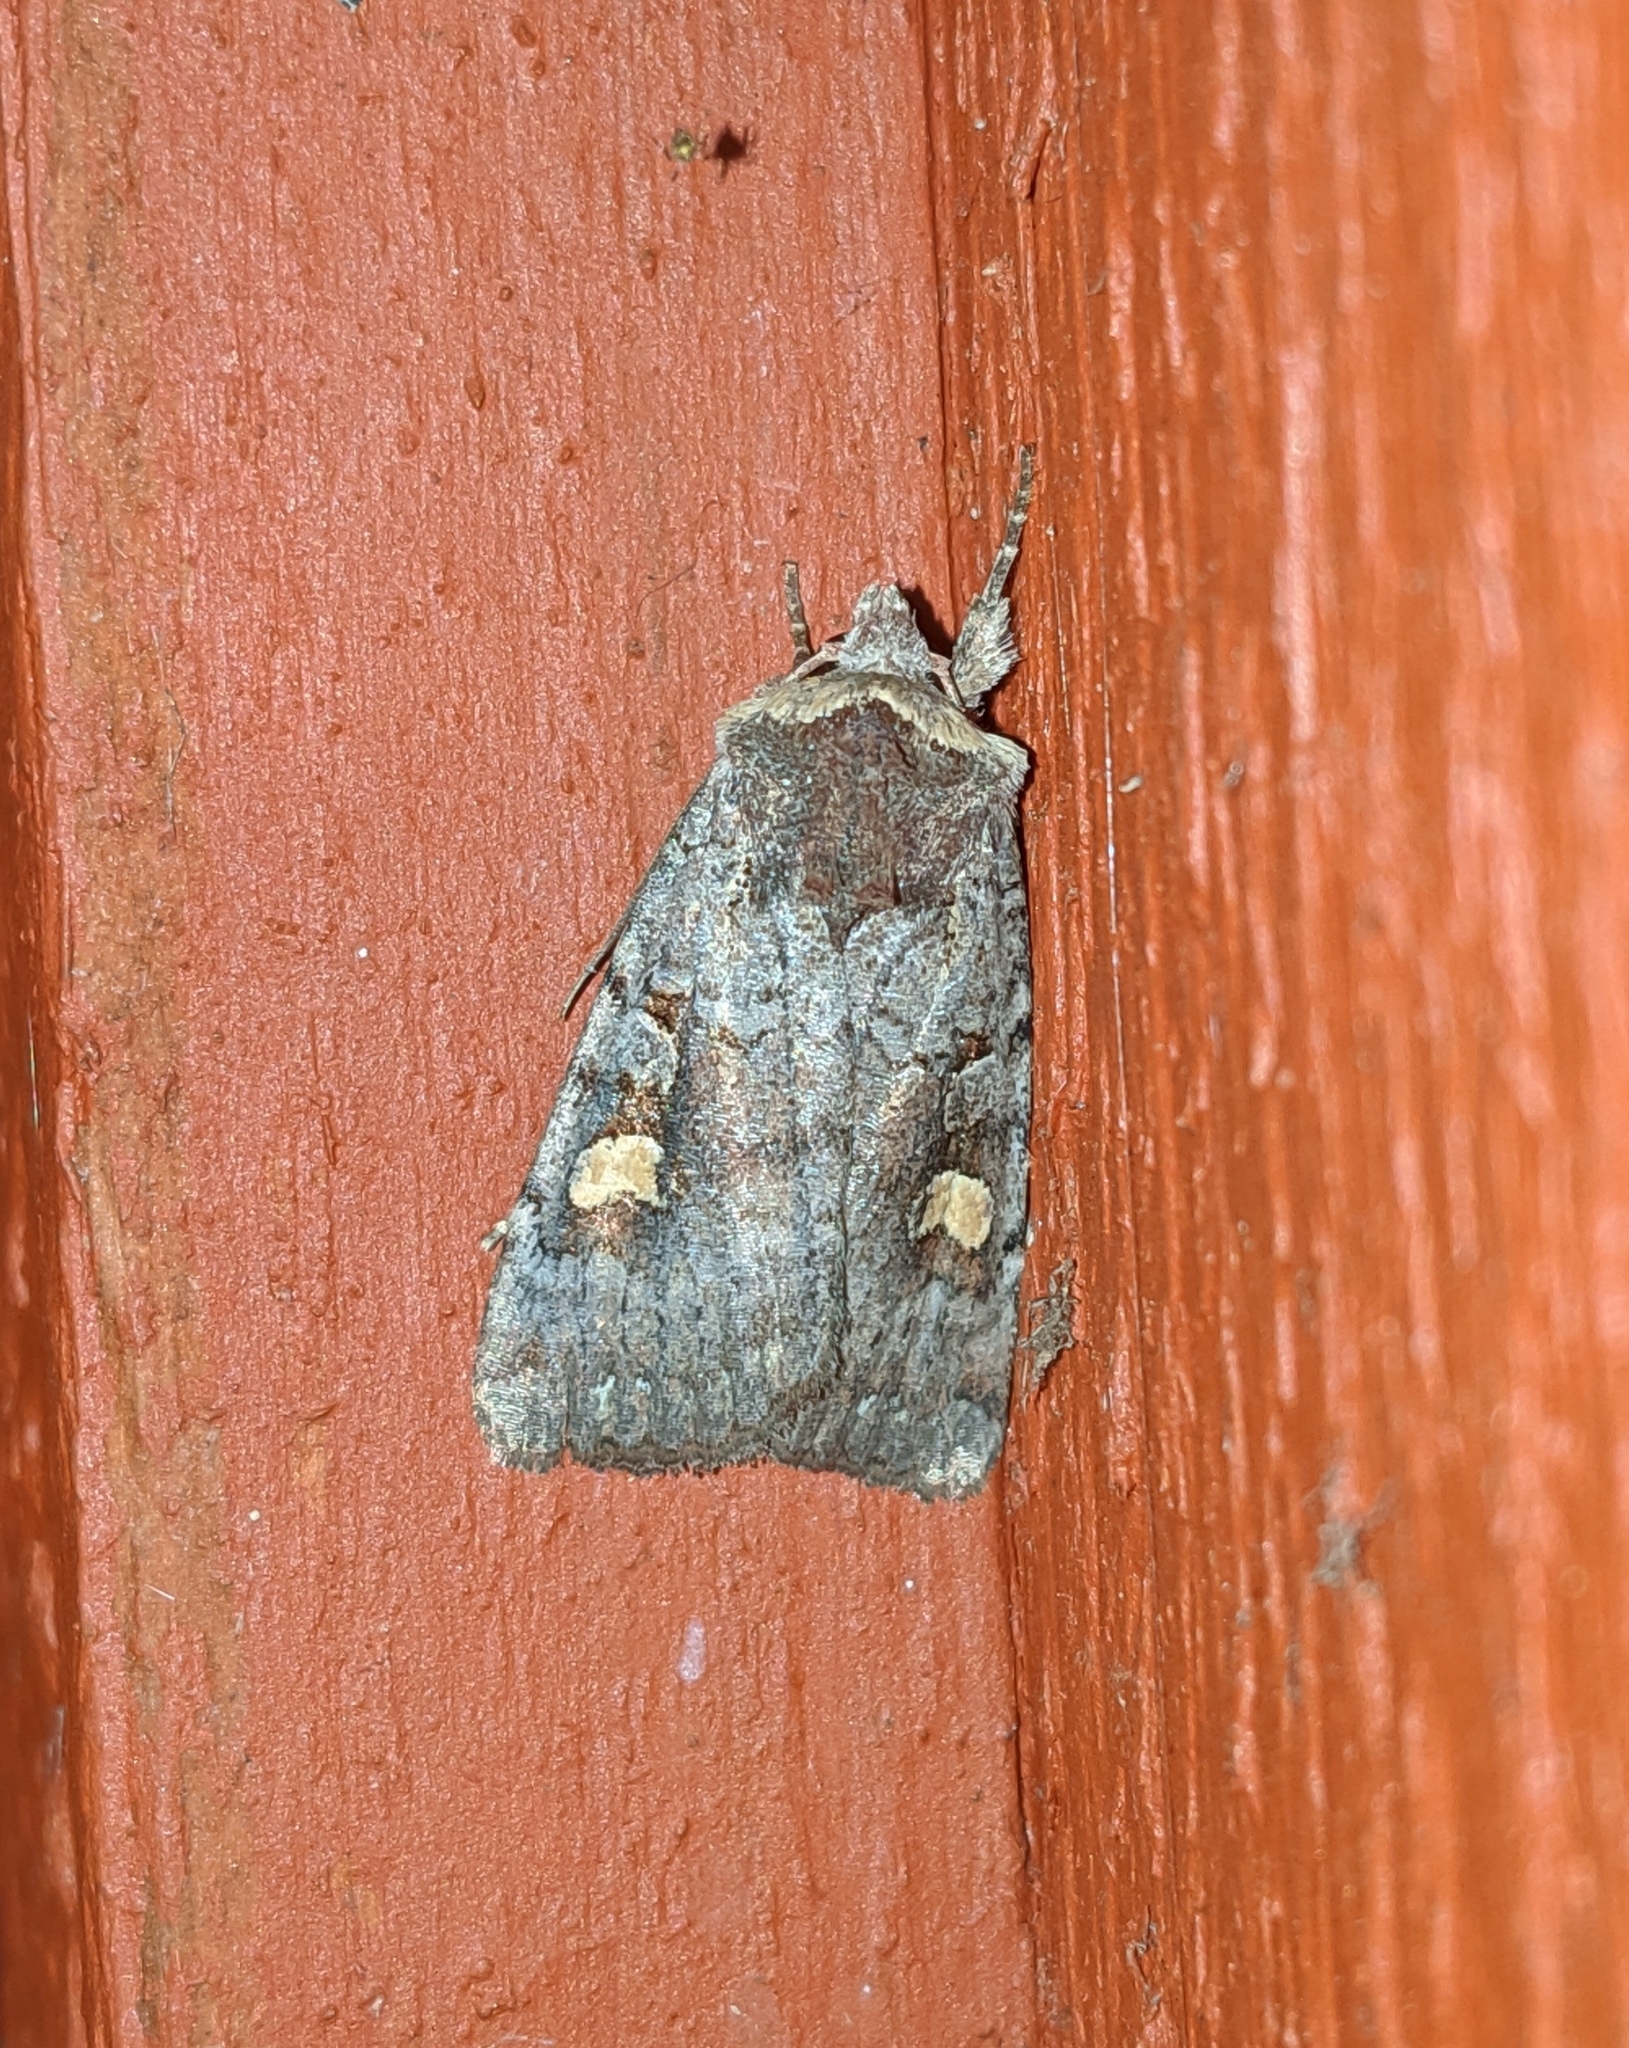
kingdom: Animalia
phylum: Arthropoda
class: Insecta
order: Lepidoptera
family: Noctuidae
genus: Adelphagrotis
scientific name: Adelphagrotis stellaris
